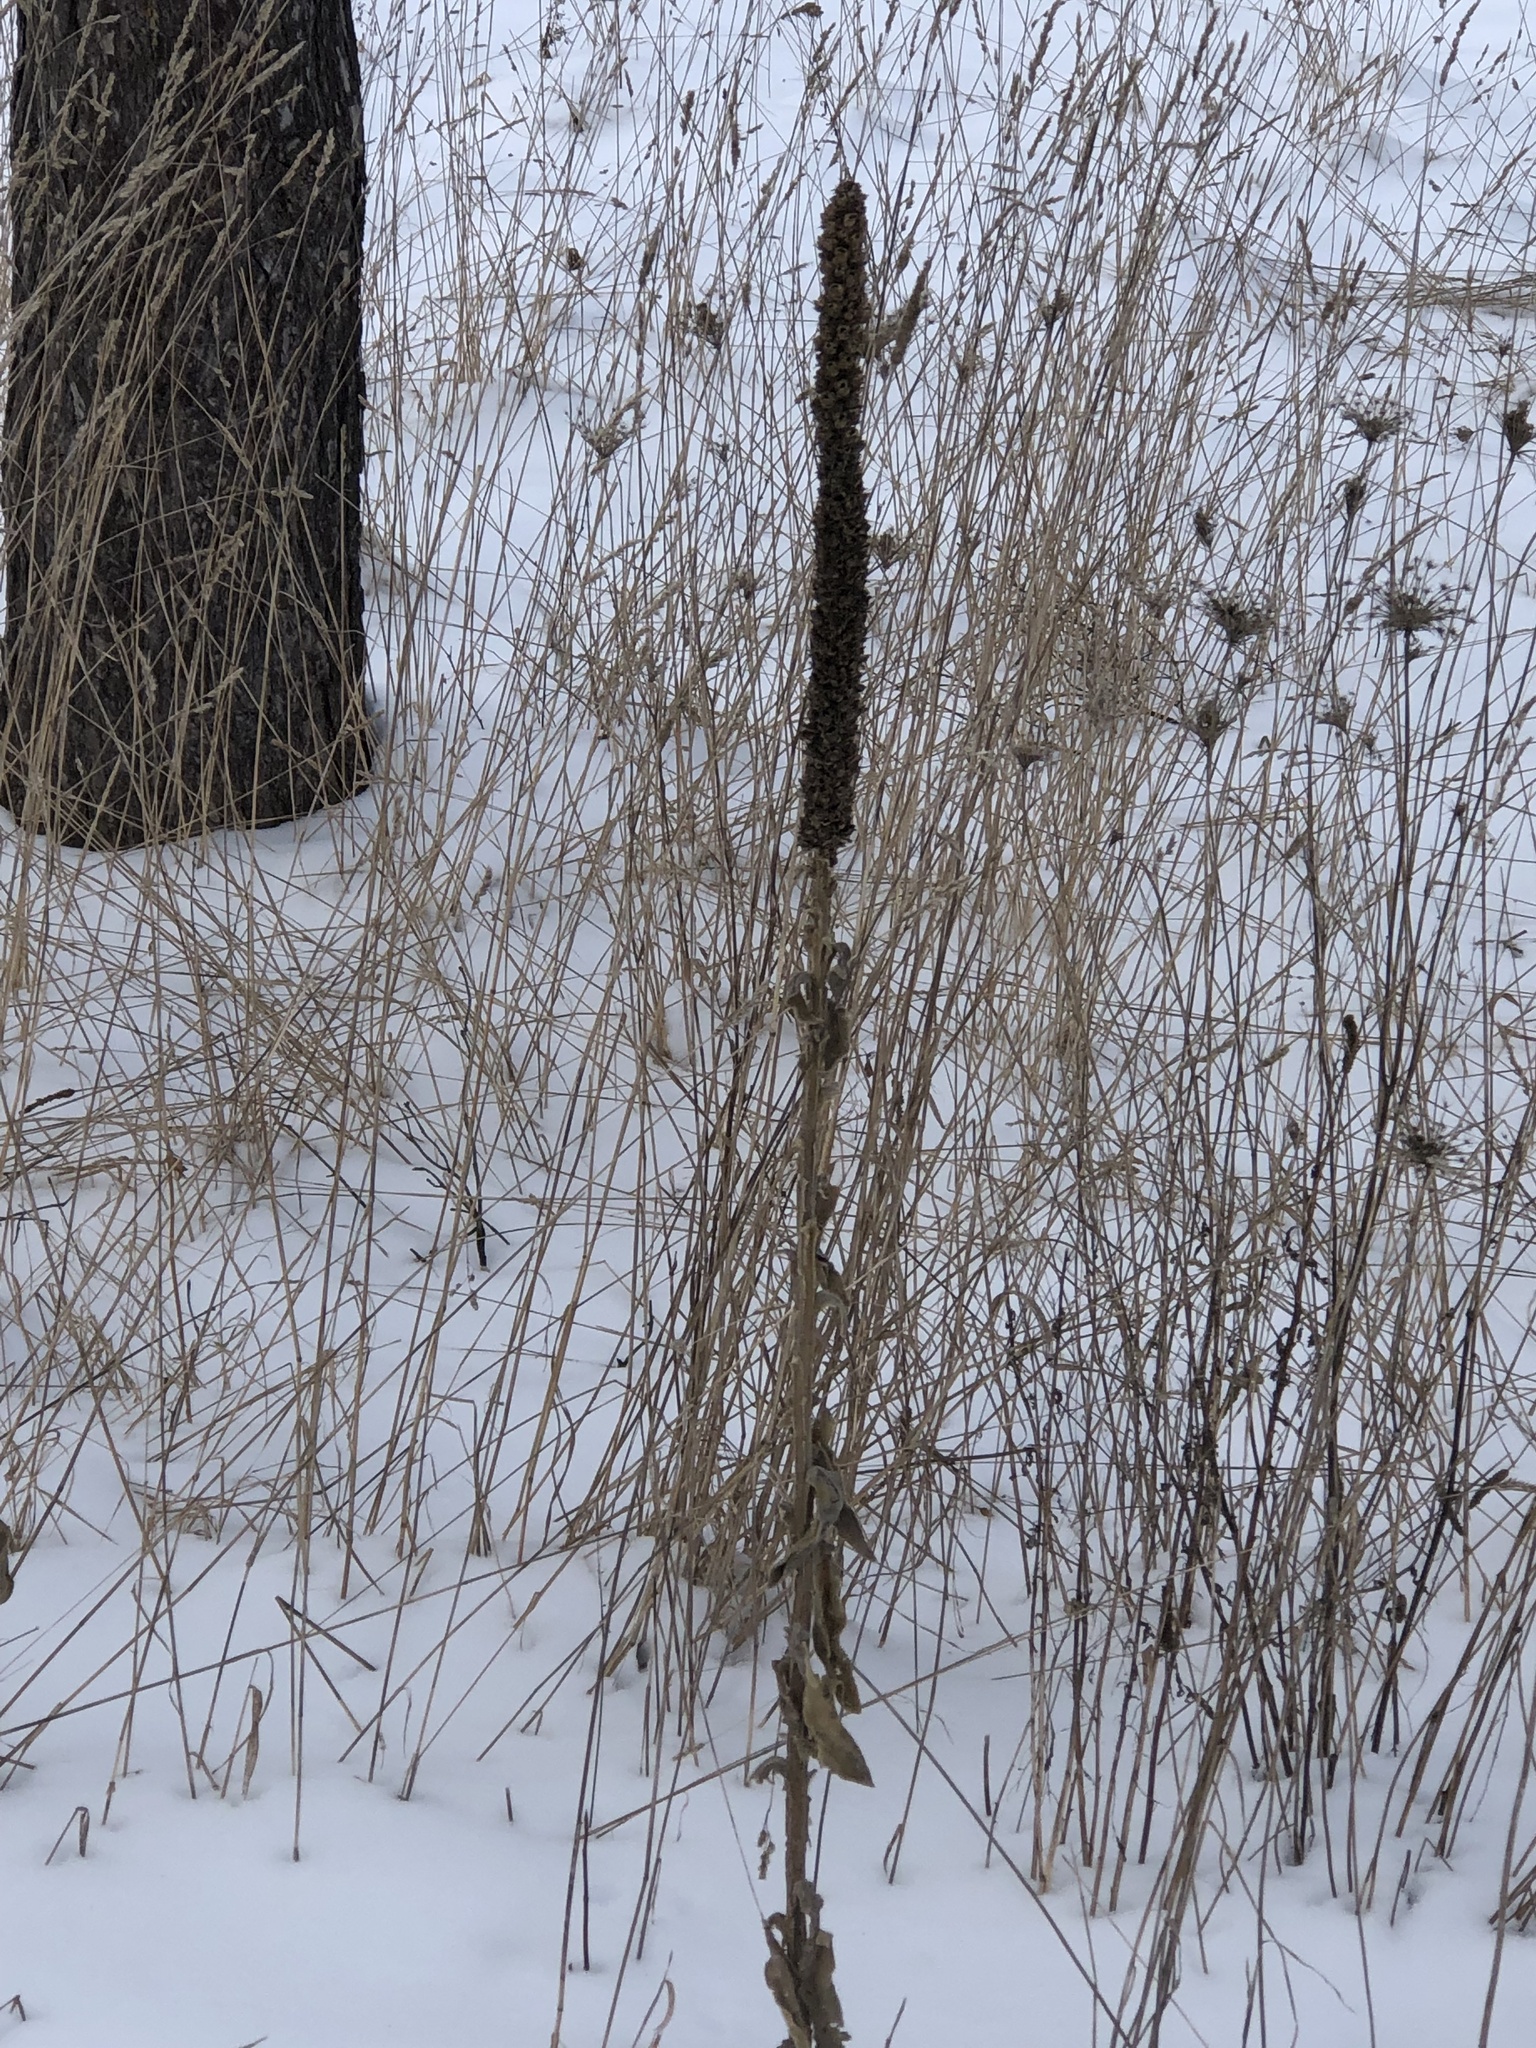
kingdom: Plantae
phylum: Tracheophyta
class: Magnoliopsida
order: Lamiales
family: Scrophulariaceae
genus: Verbascum
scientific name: Verbascum thapsus
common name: Common mullein
